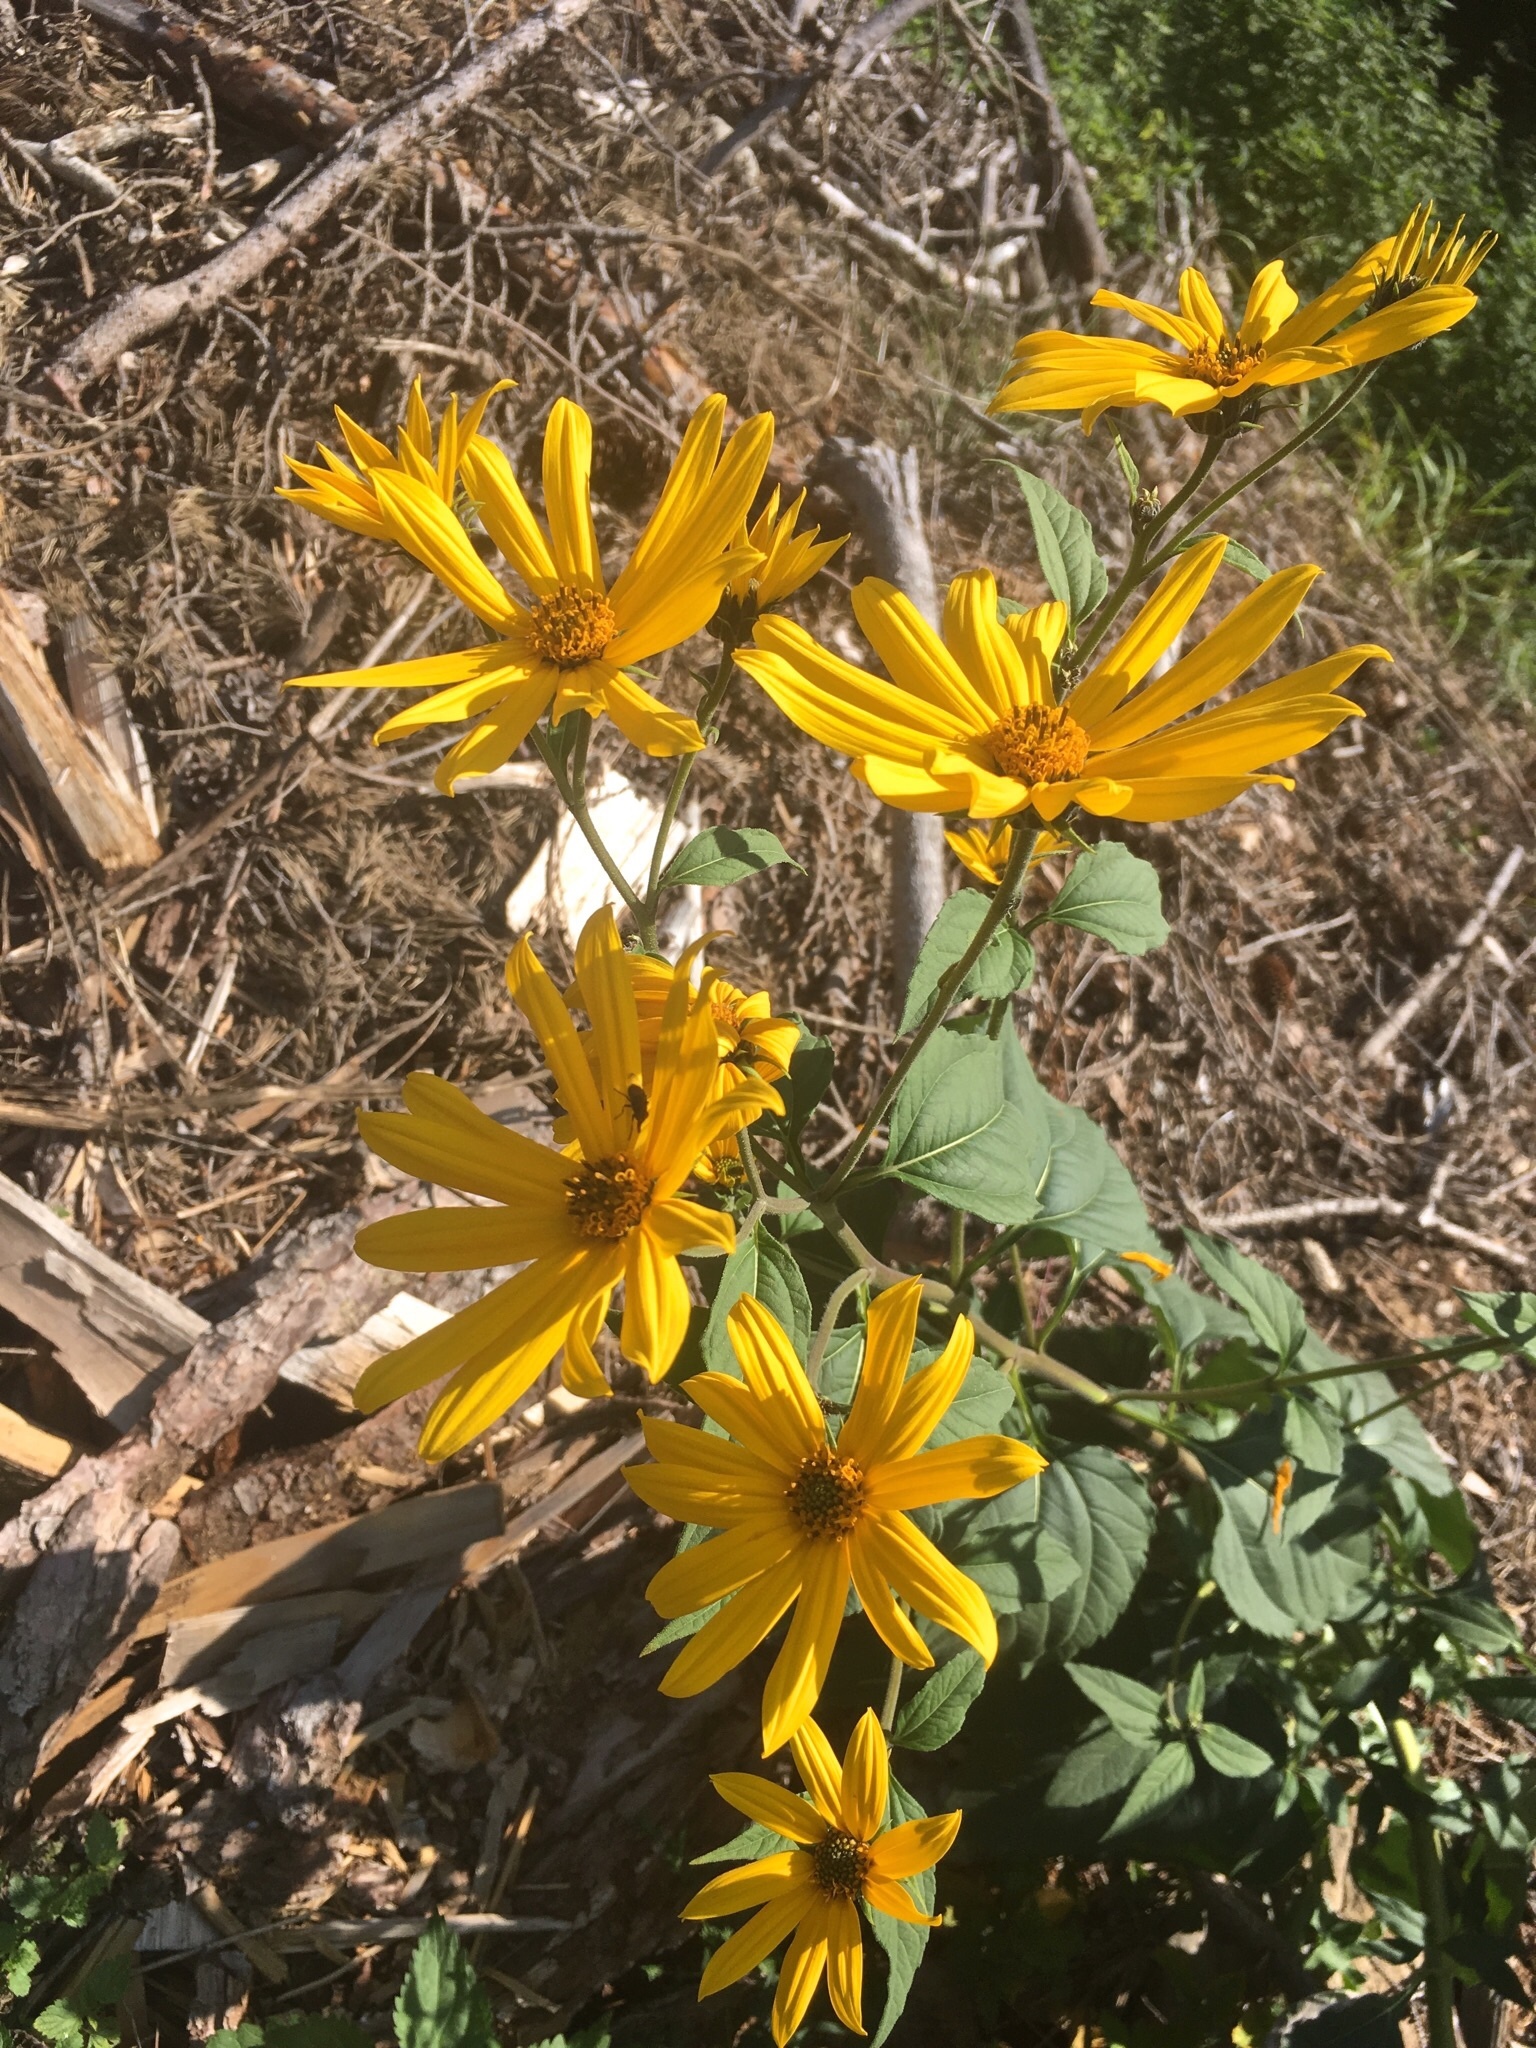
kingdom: Plantae
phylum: Tracheophyta
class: Magnoliopsida
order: Asterales
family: Asteraceae
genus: Helianthus
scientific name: Helianthus tuberosus
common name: Jerusalem artichoke
